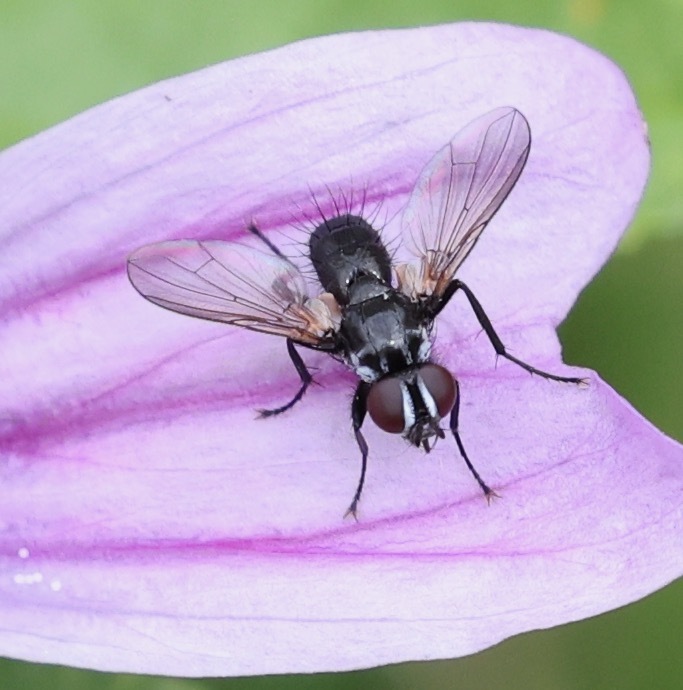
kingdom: Animalia
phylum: Arthropoda
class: Insecta
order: Diptera
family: Tachinidae
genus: Phania
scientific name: Phania funesta
